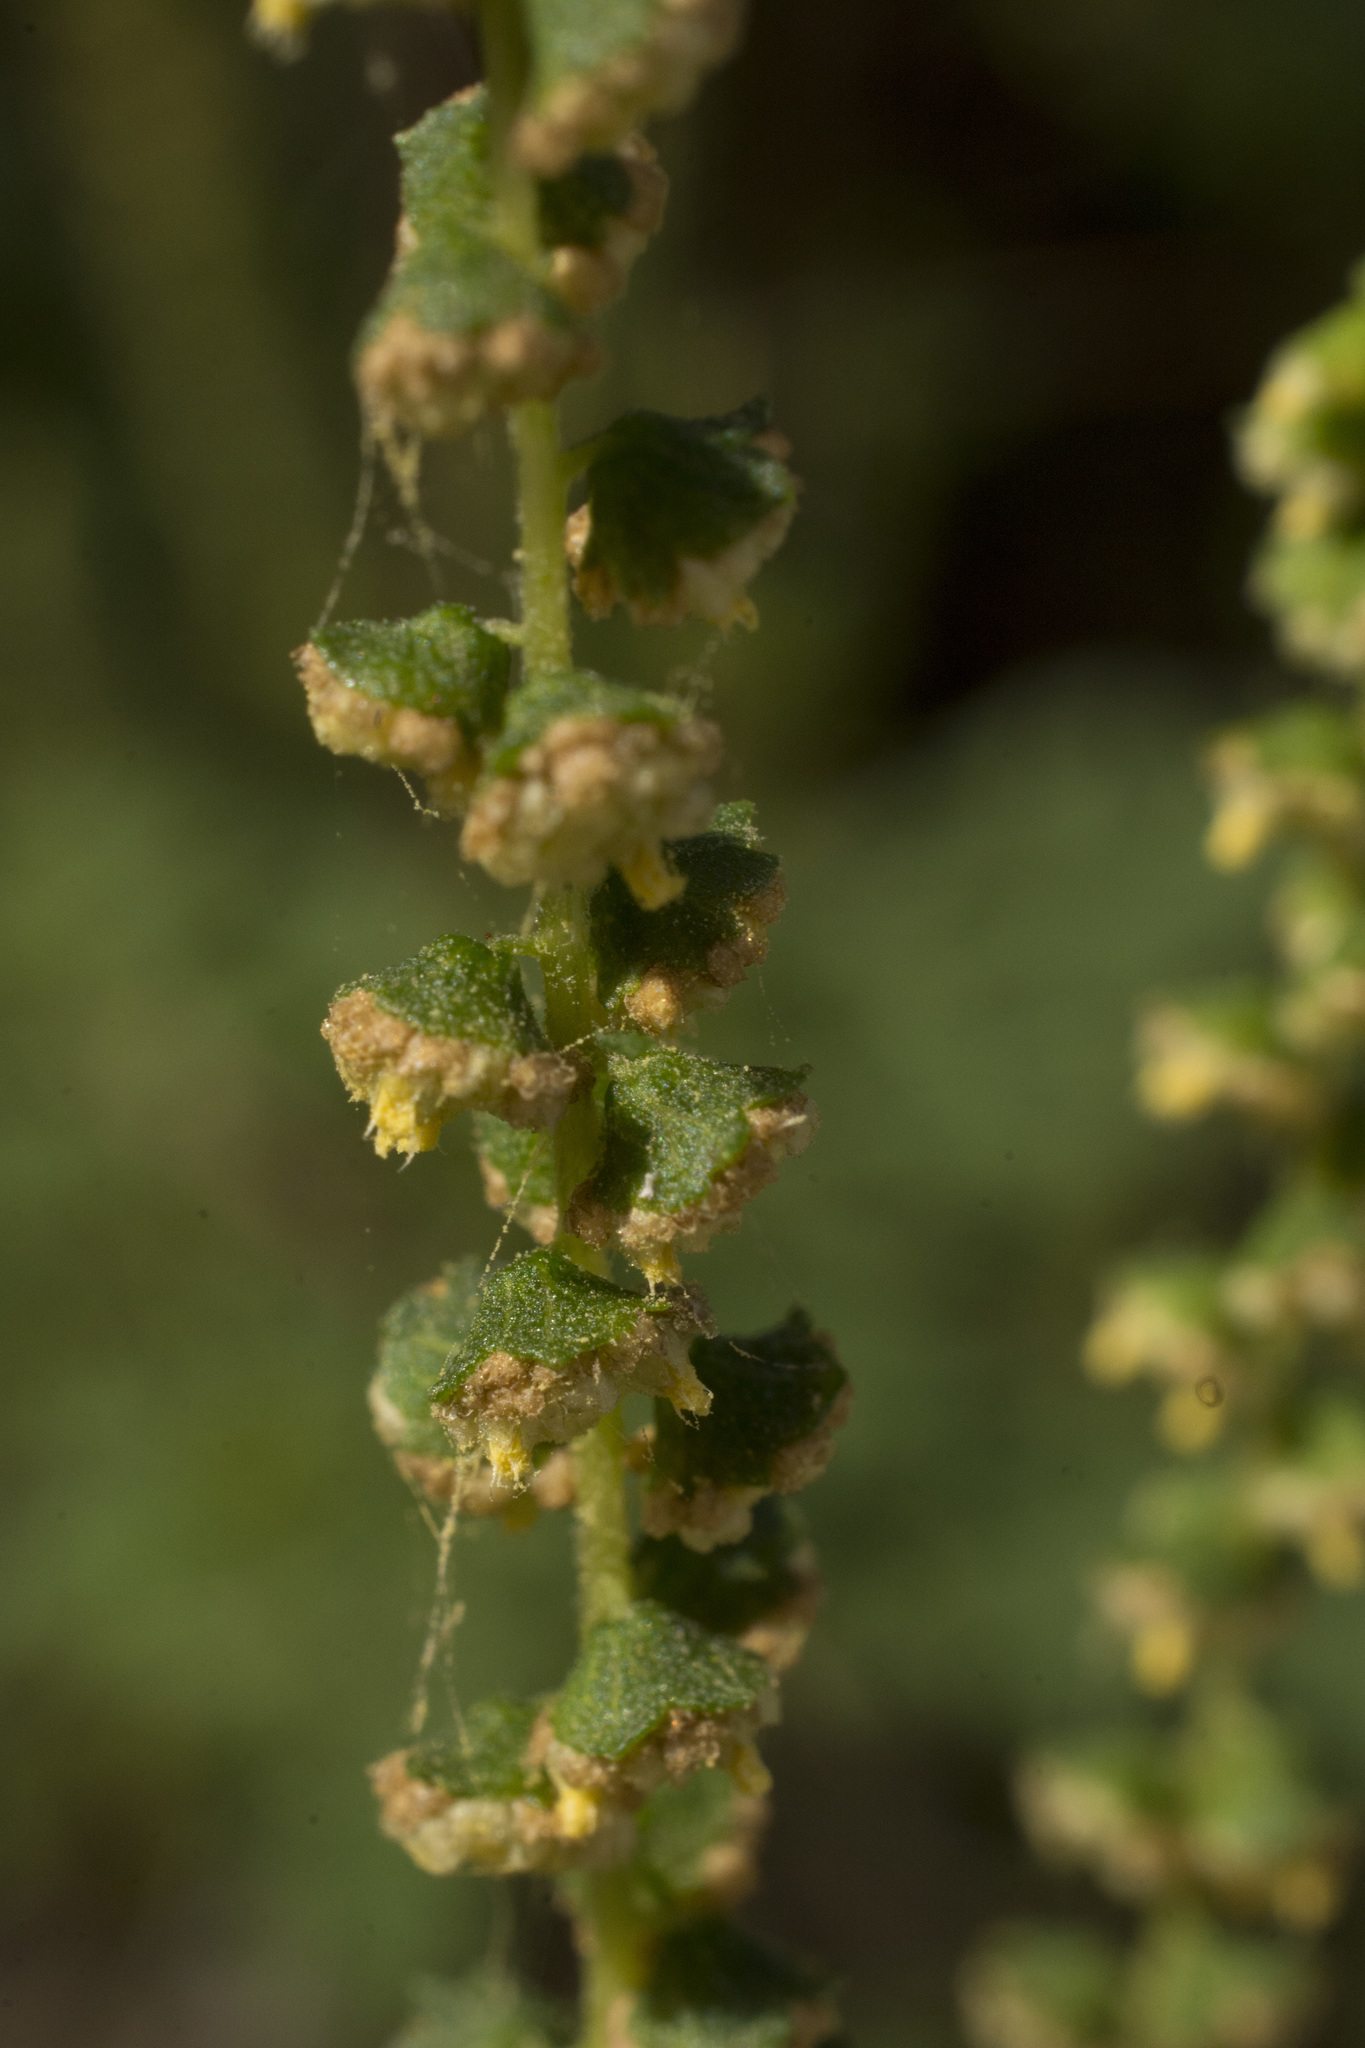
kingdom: Plantae
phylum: Tracheophyta
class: Magnoliopsida
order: Asterales
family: Asteraceae
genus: Ambrosia
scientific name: Ambrosia artemisiifolia
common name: Annual ragweed
